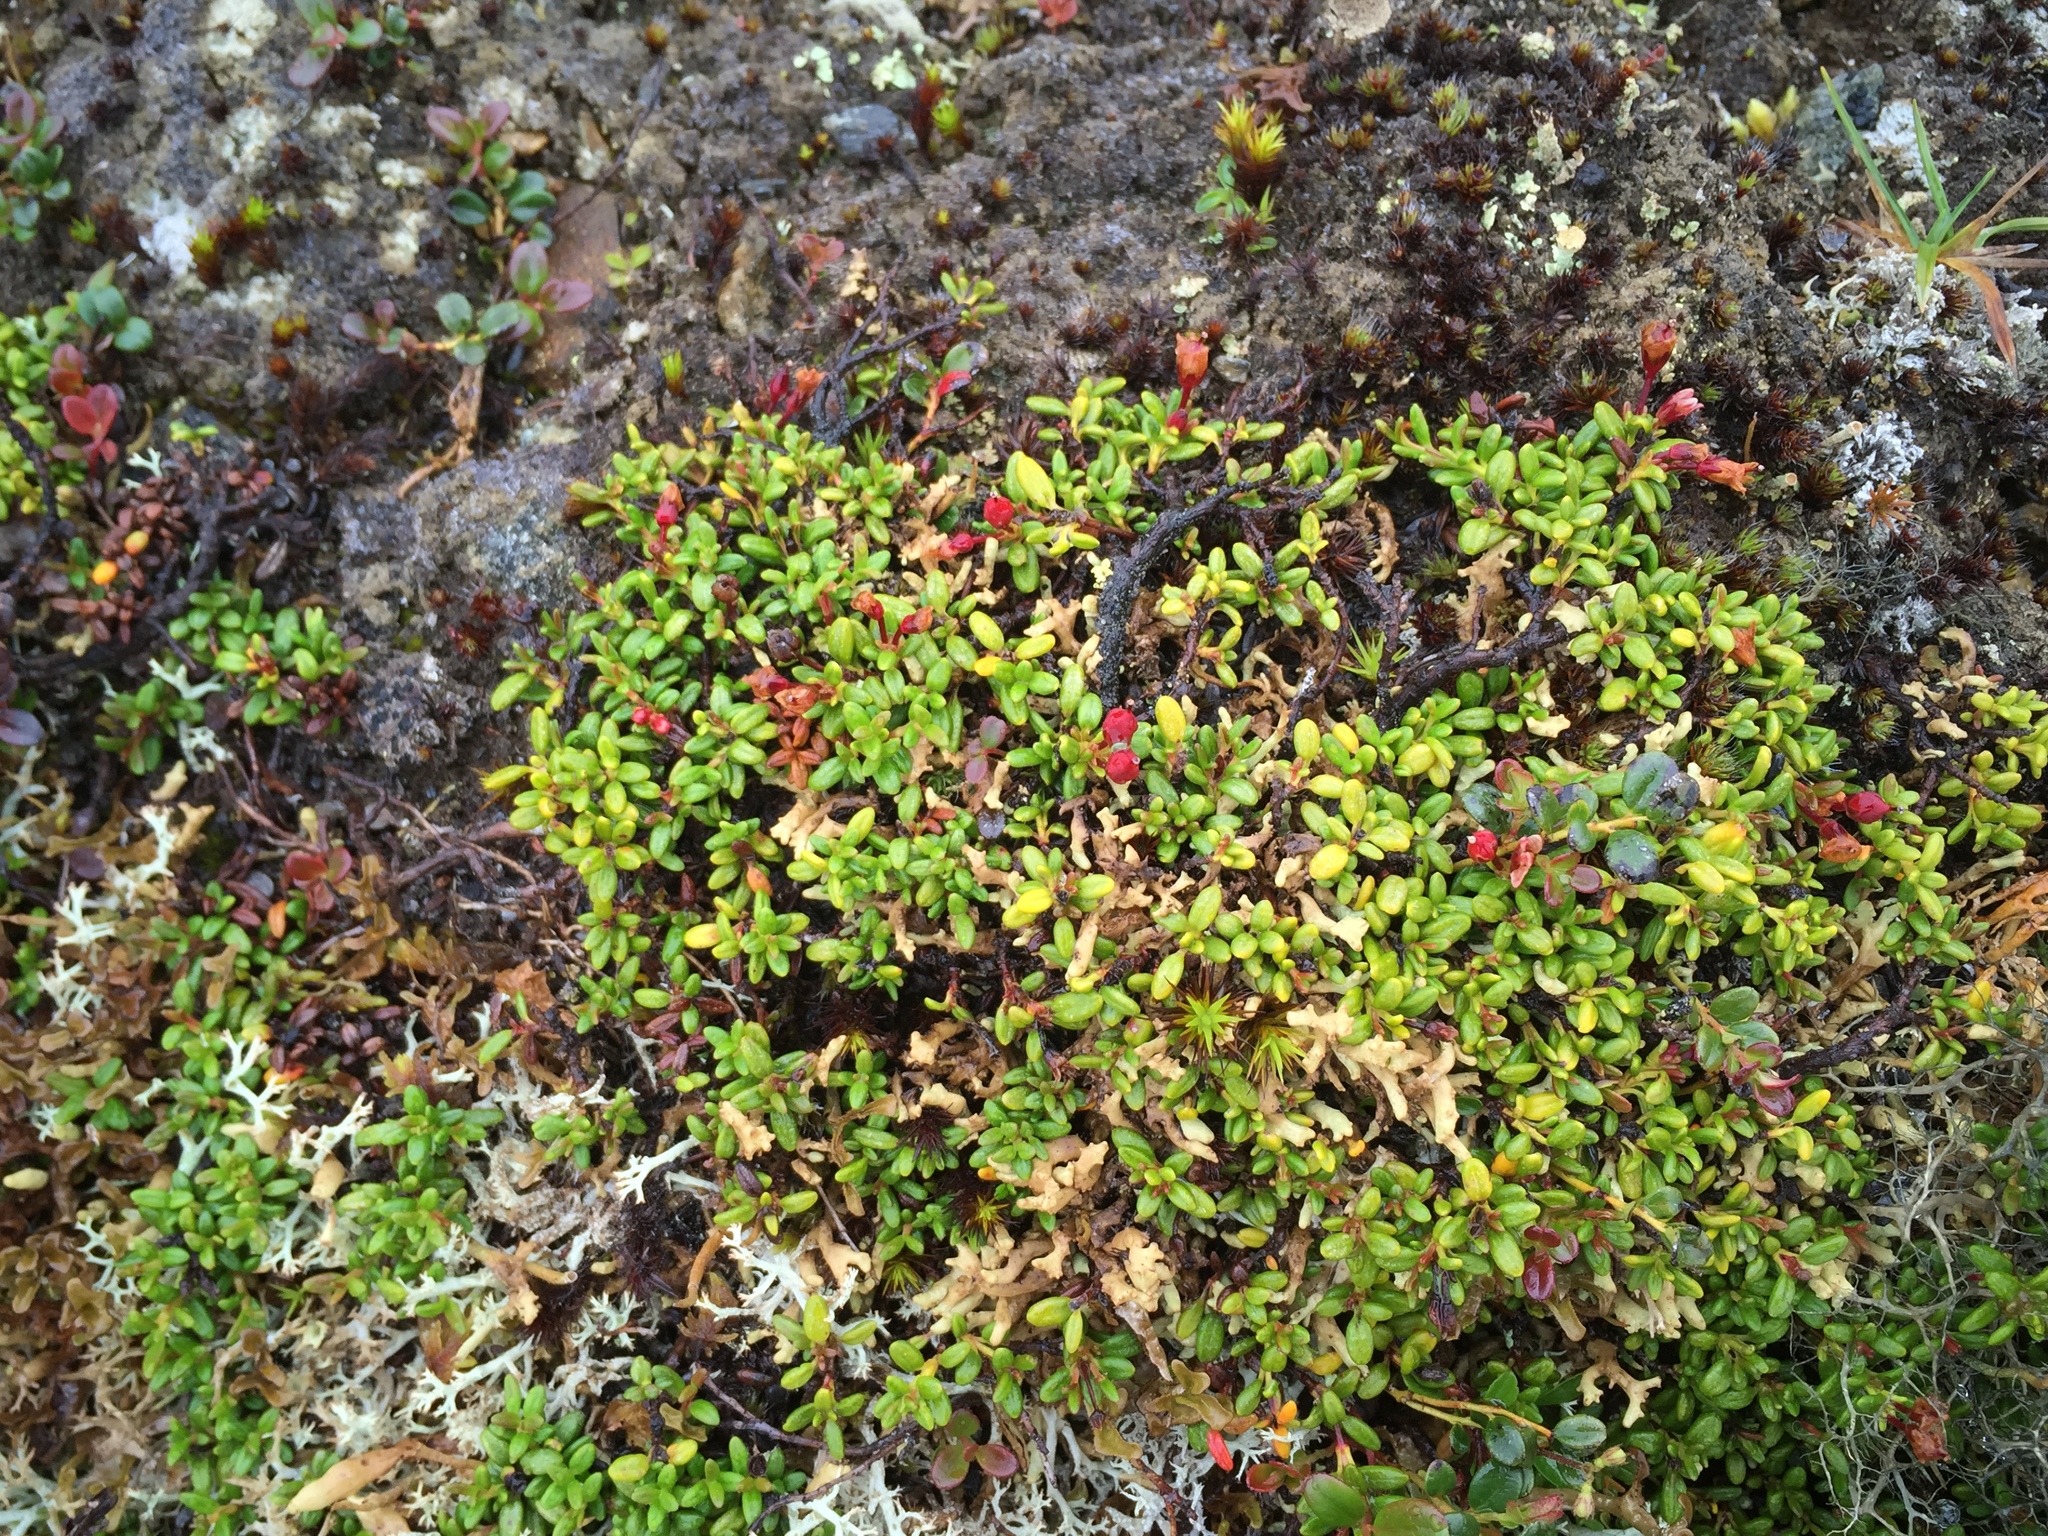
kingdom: Plantae
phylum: Tracheophyta
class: Magnoliopsida
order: Ericales
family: Ericaceae
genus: Kalmia
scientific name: Kalmia procumbens
